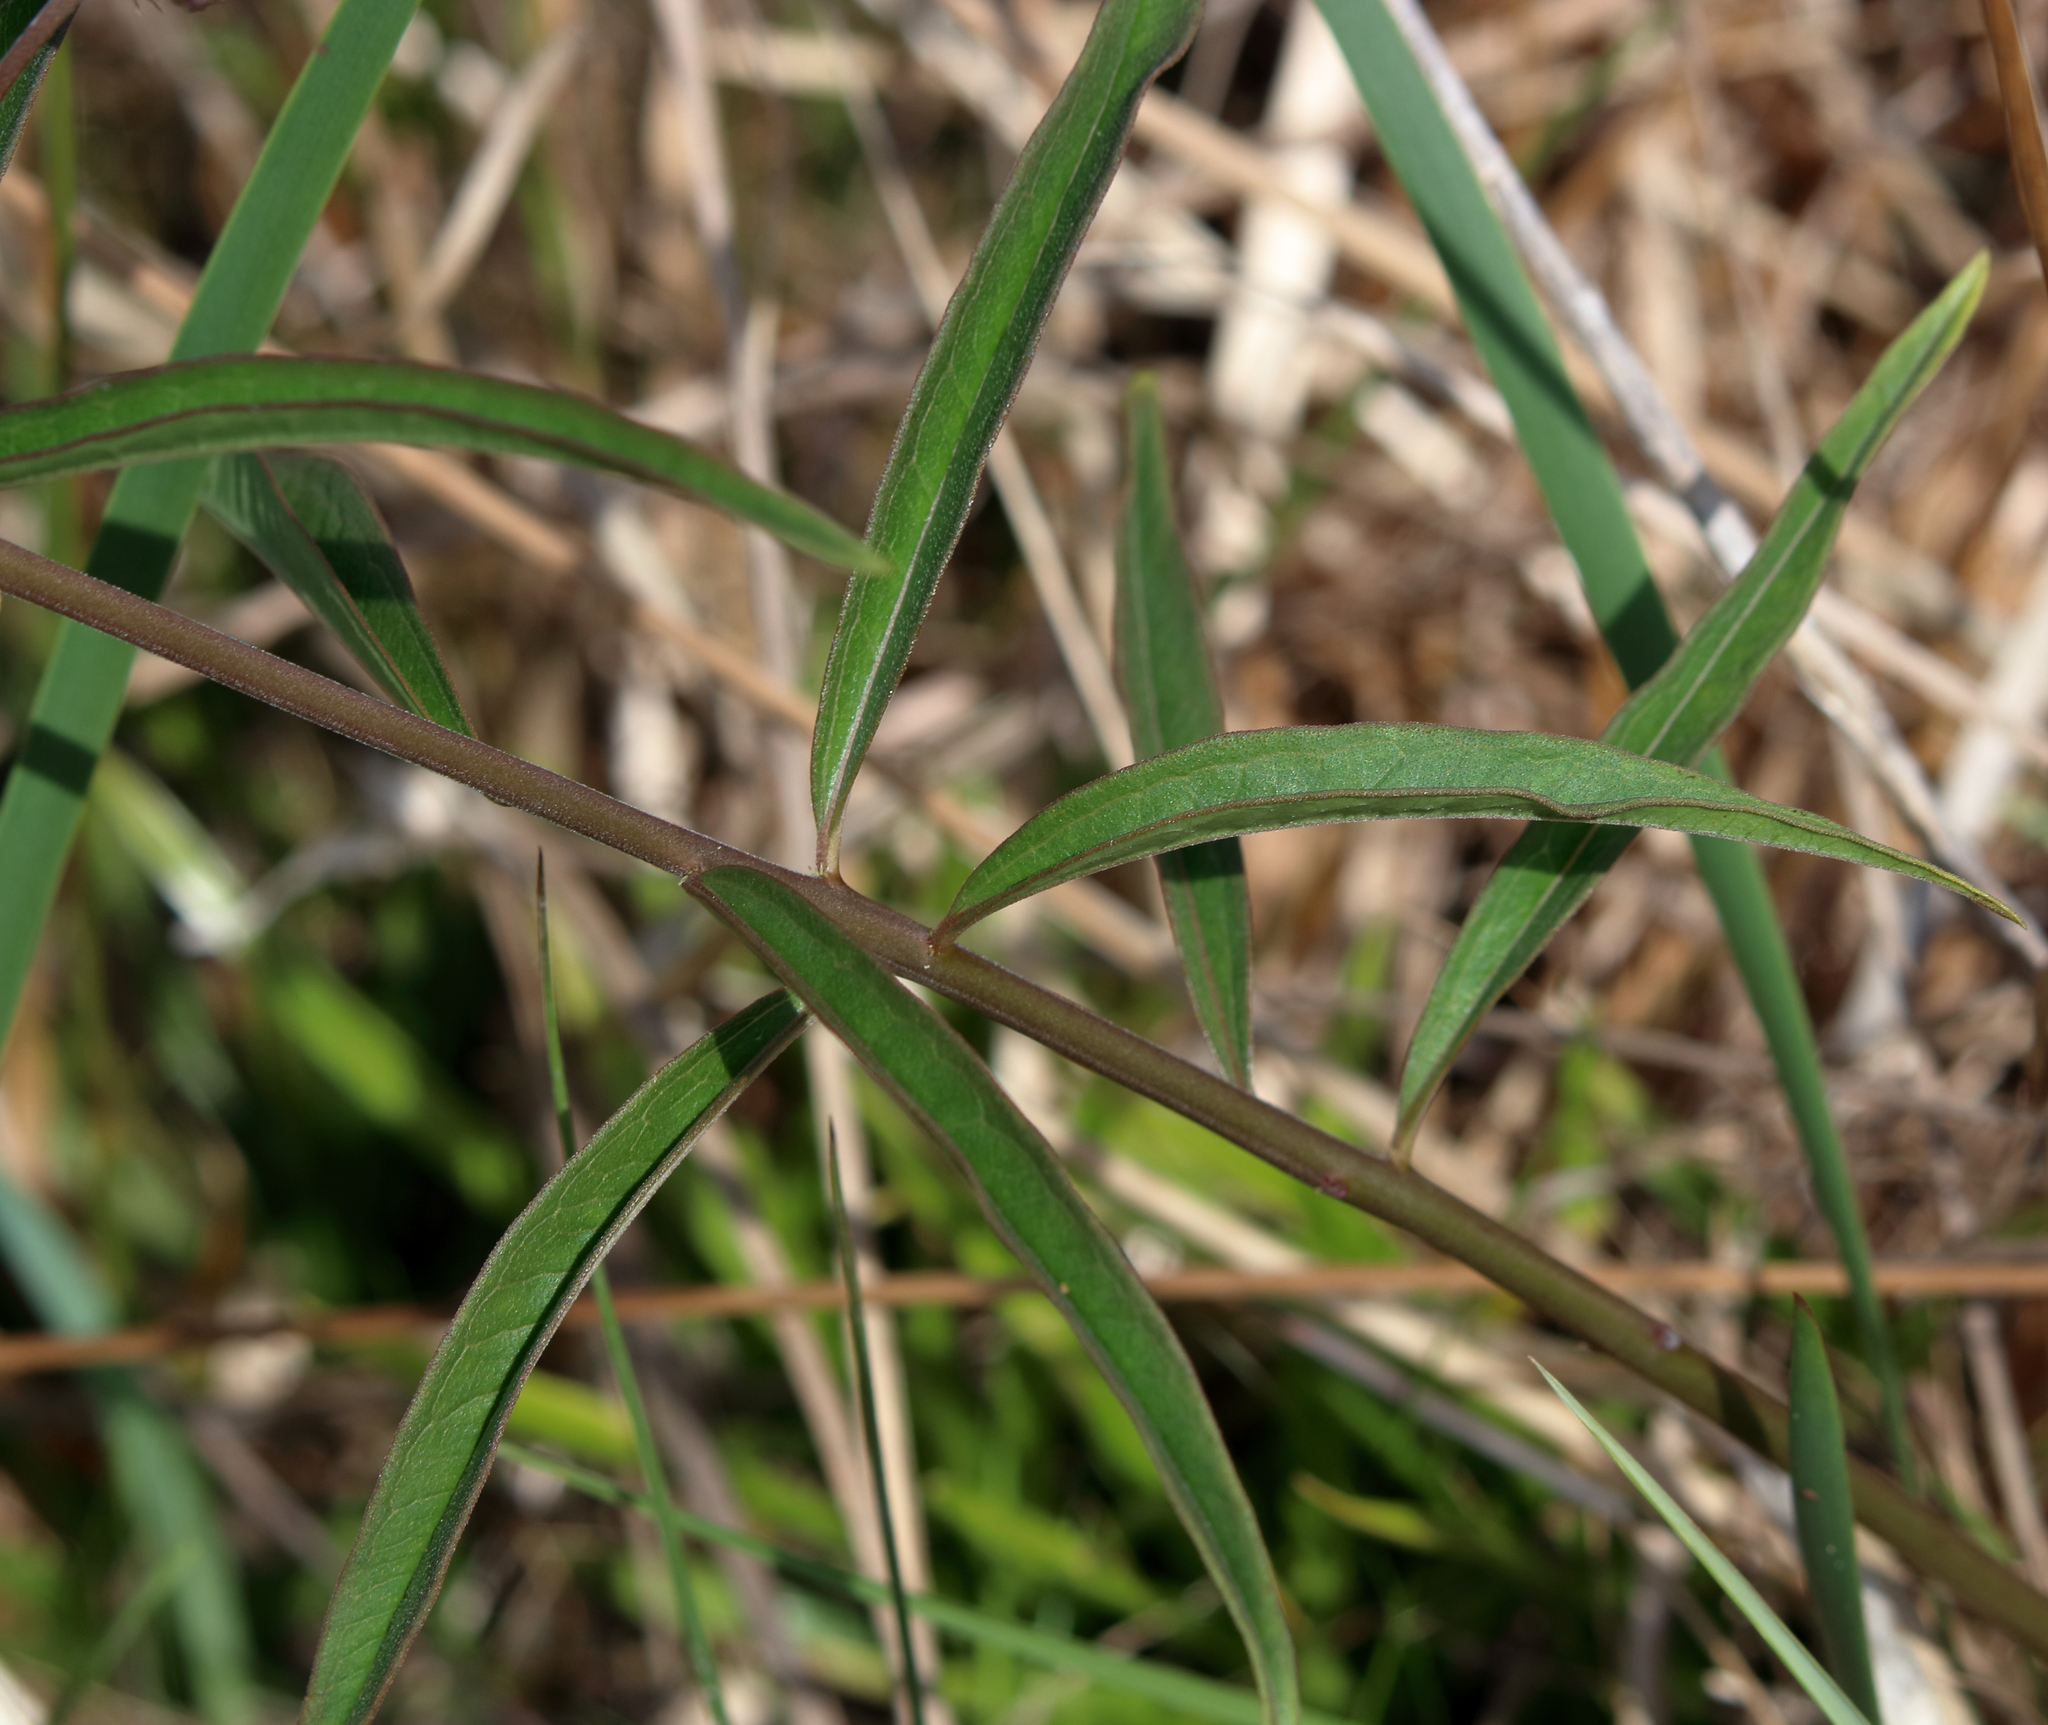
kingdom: Plantae
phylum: Tracheophyta
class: Magnoliopsida
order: Gentianales
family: Apocynaceae
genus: Asclepias
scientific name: Asclepias longifolia
